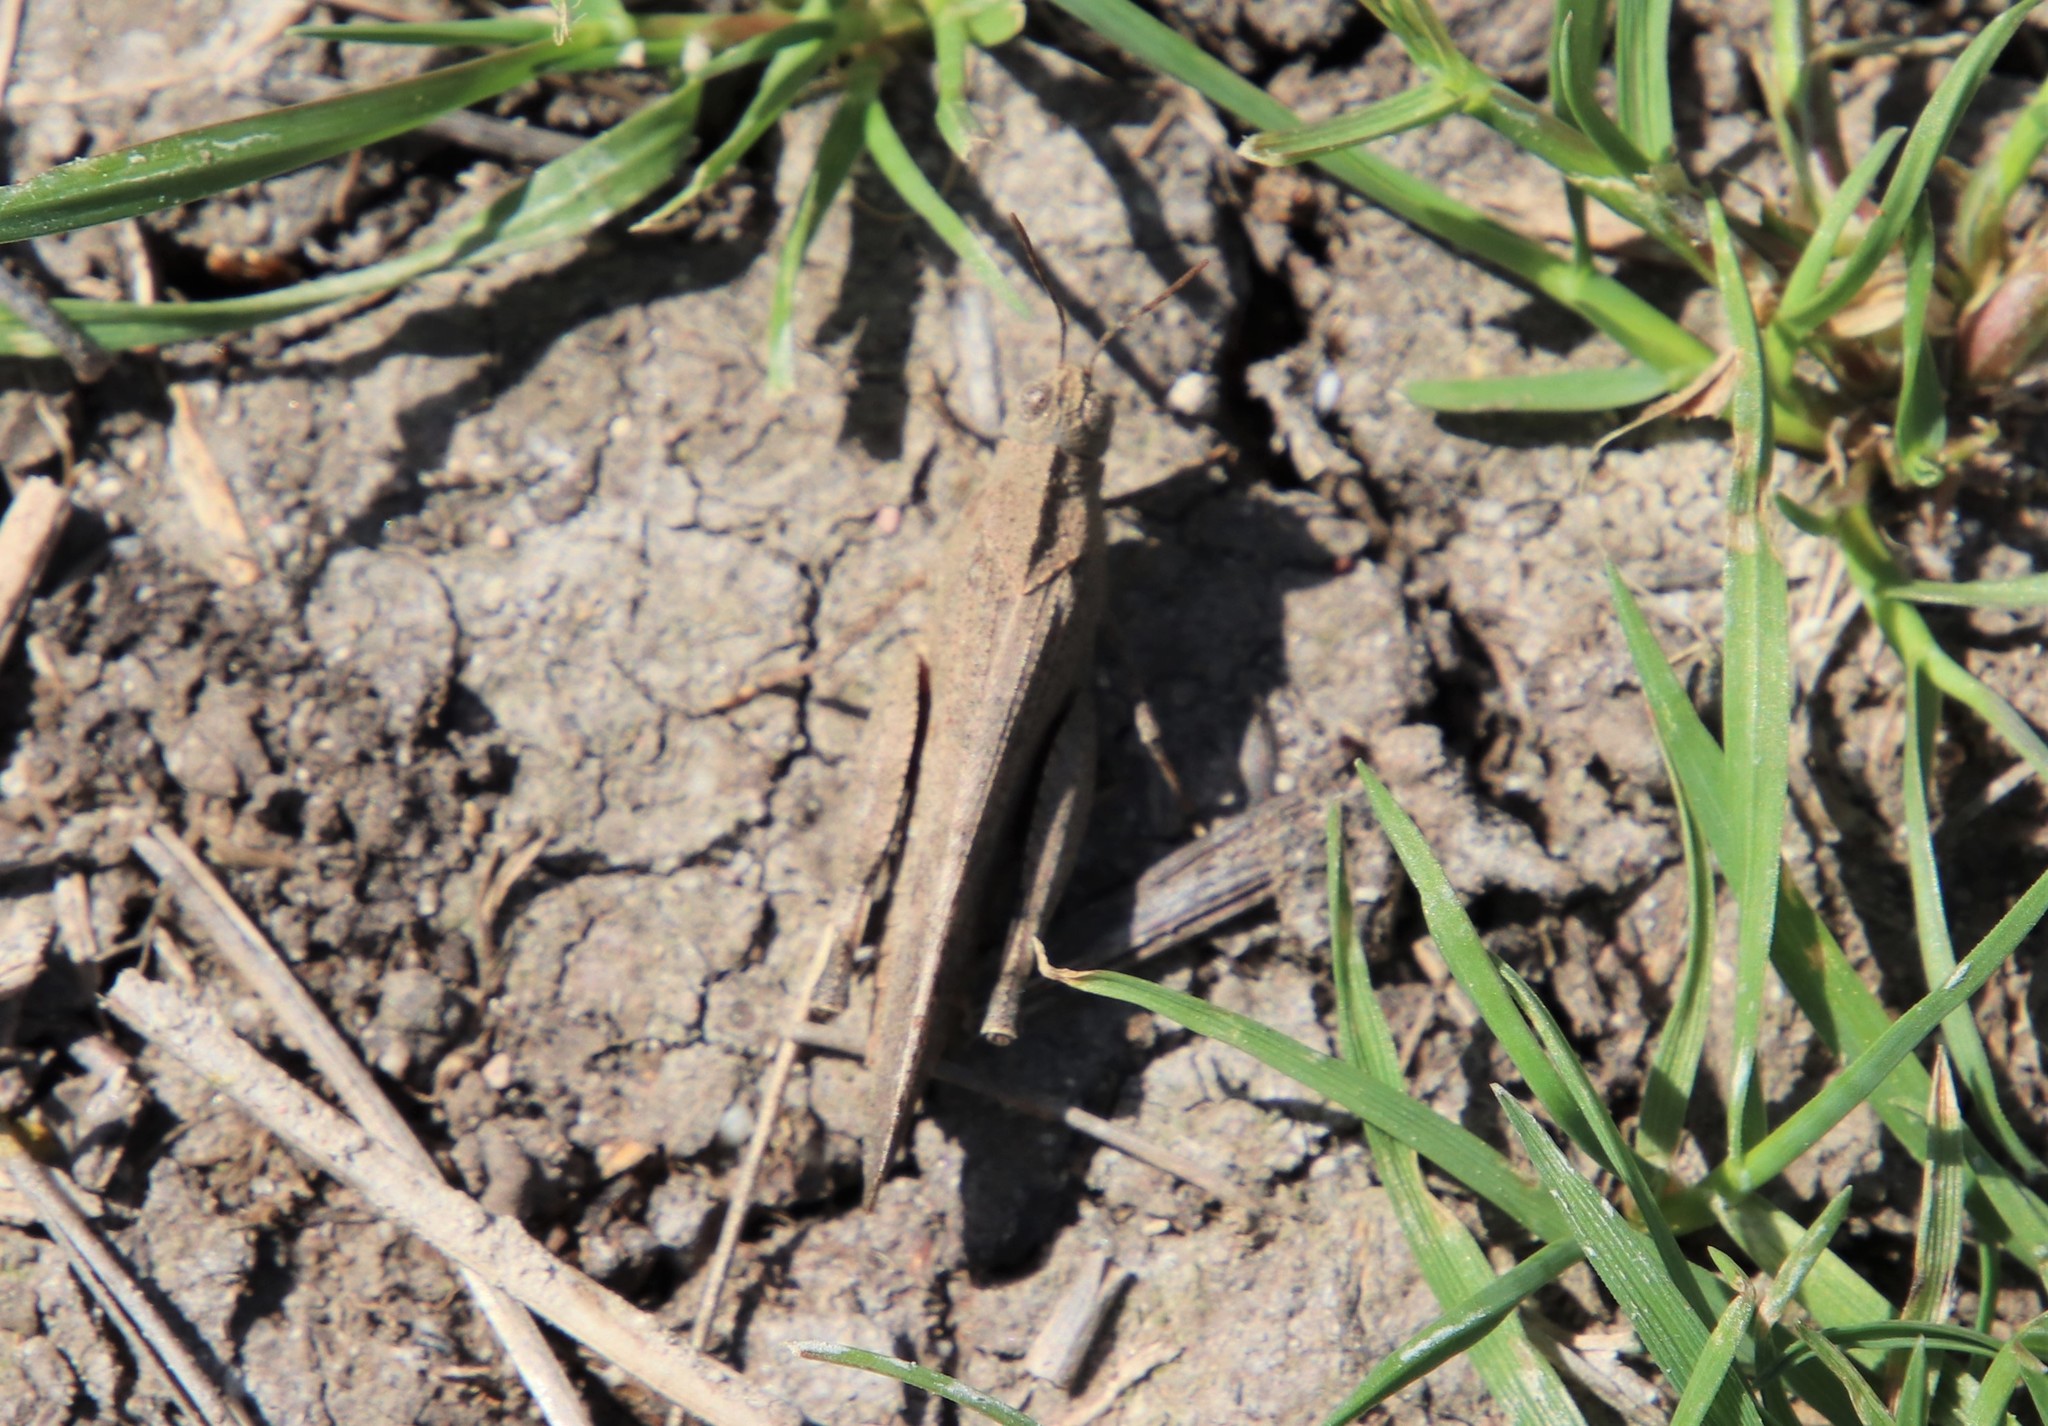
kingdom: Animalia
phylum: Arthropoda
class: Insecta
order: Orthoptera
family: Acrididae
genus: Lactista
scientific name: Lactista gibbosus
